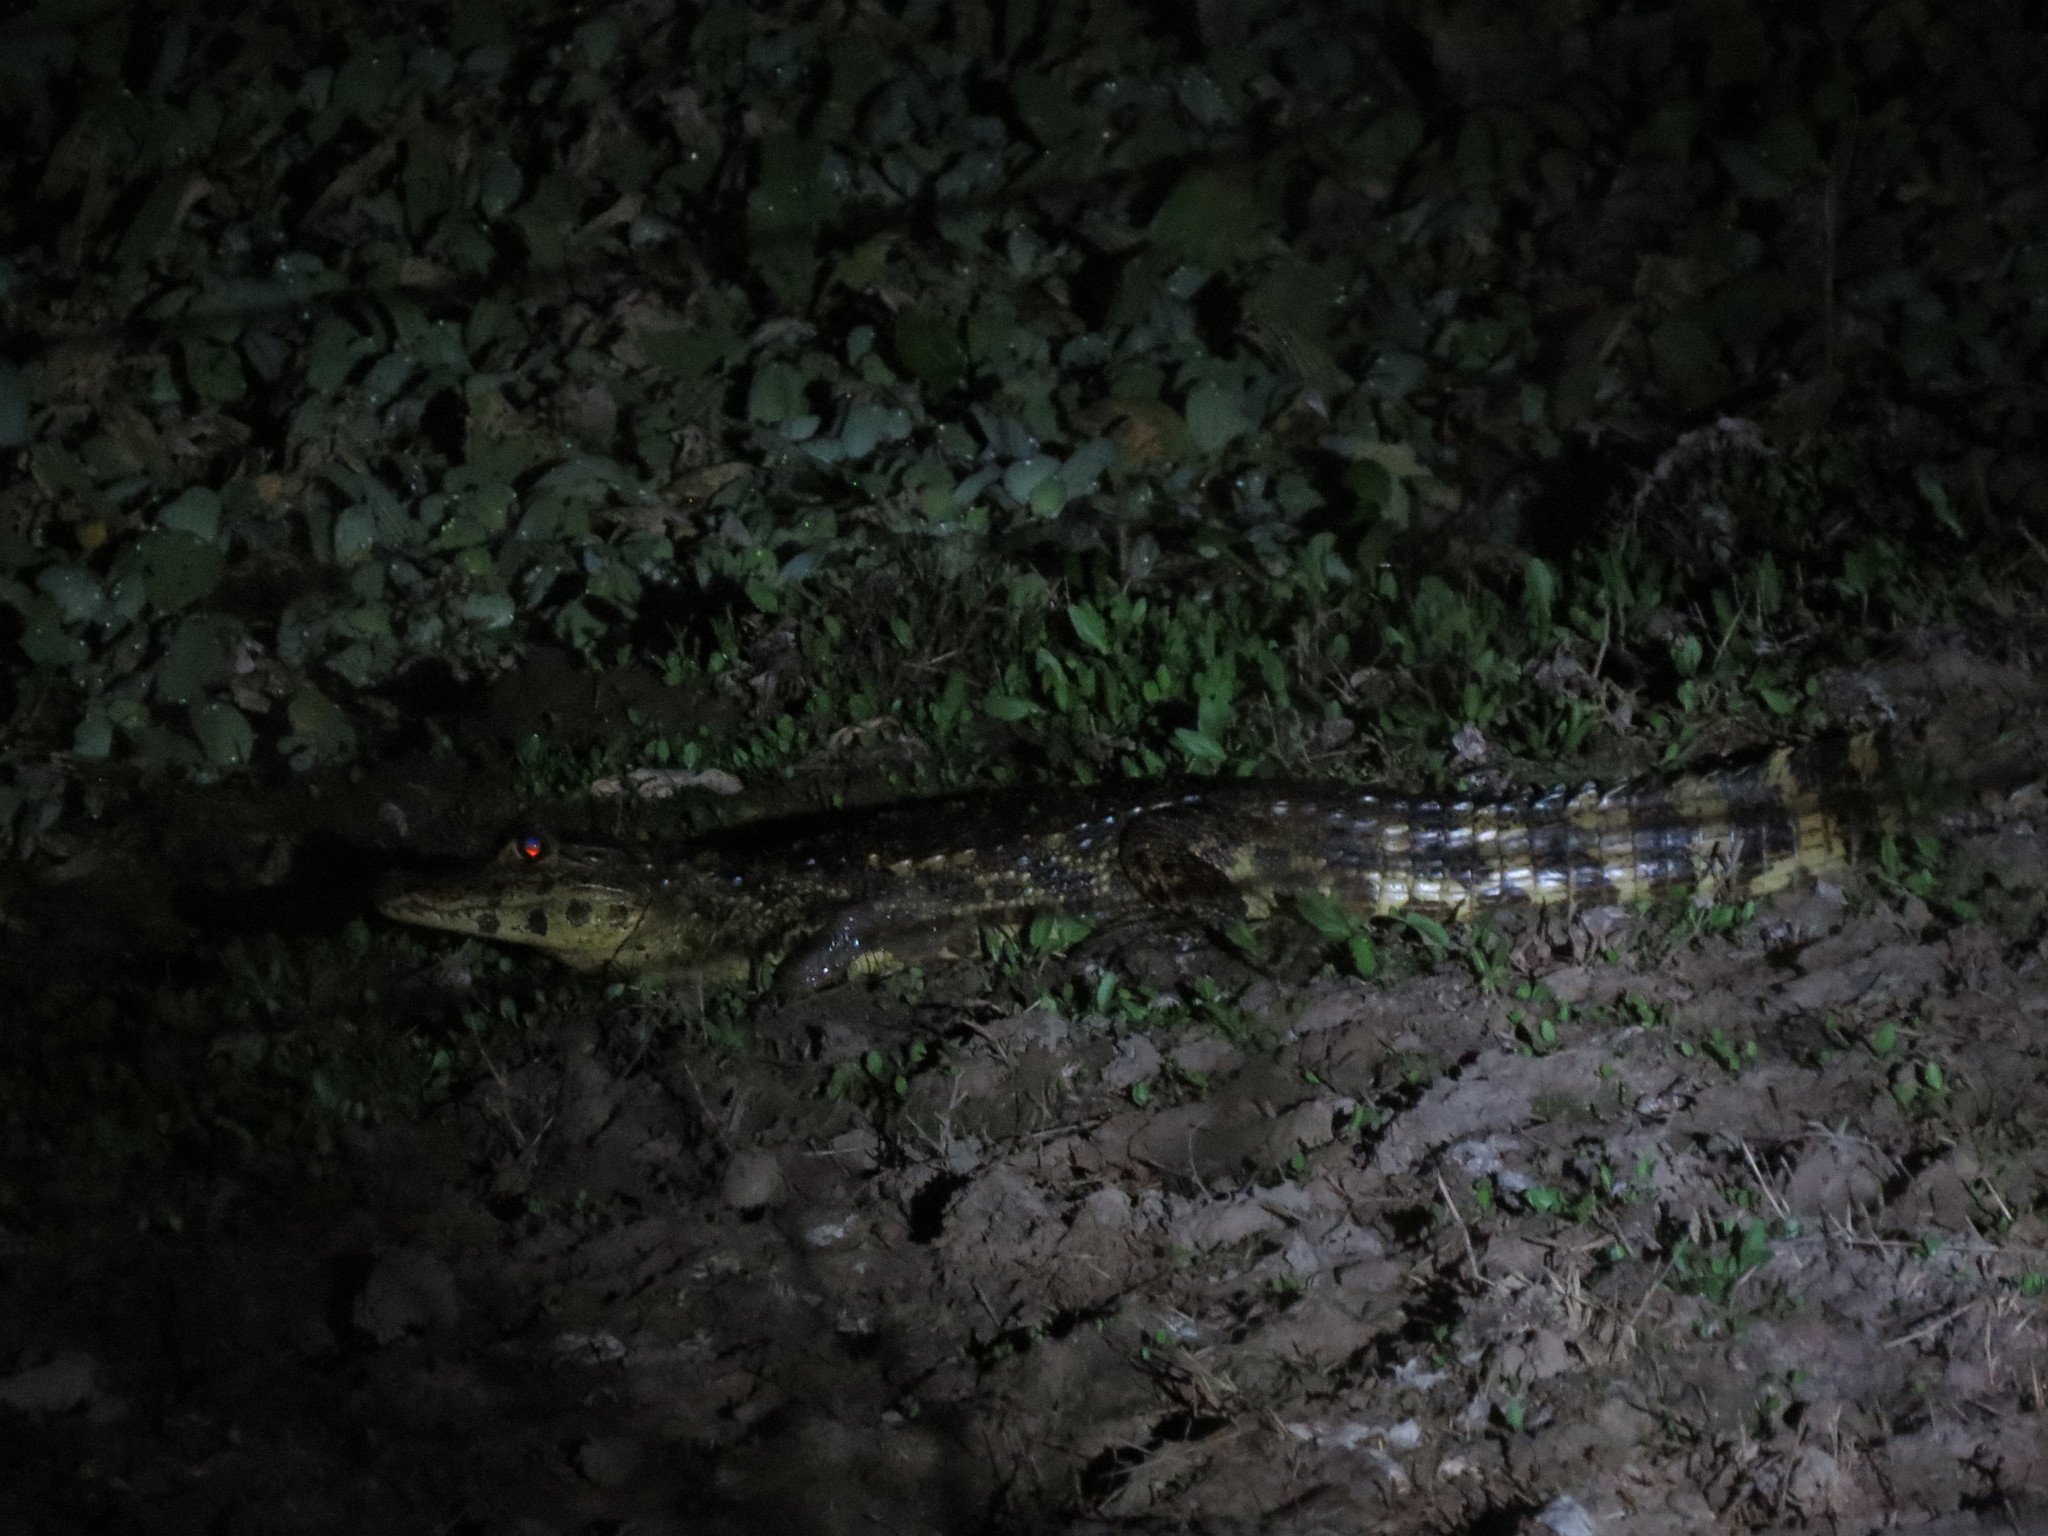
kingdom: Animalia
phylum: Chordata
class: Crocodylia
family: Alligatoridae
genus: Caiman
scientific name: Caiman yacare
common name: Yacare caiman
